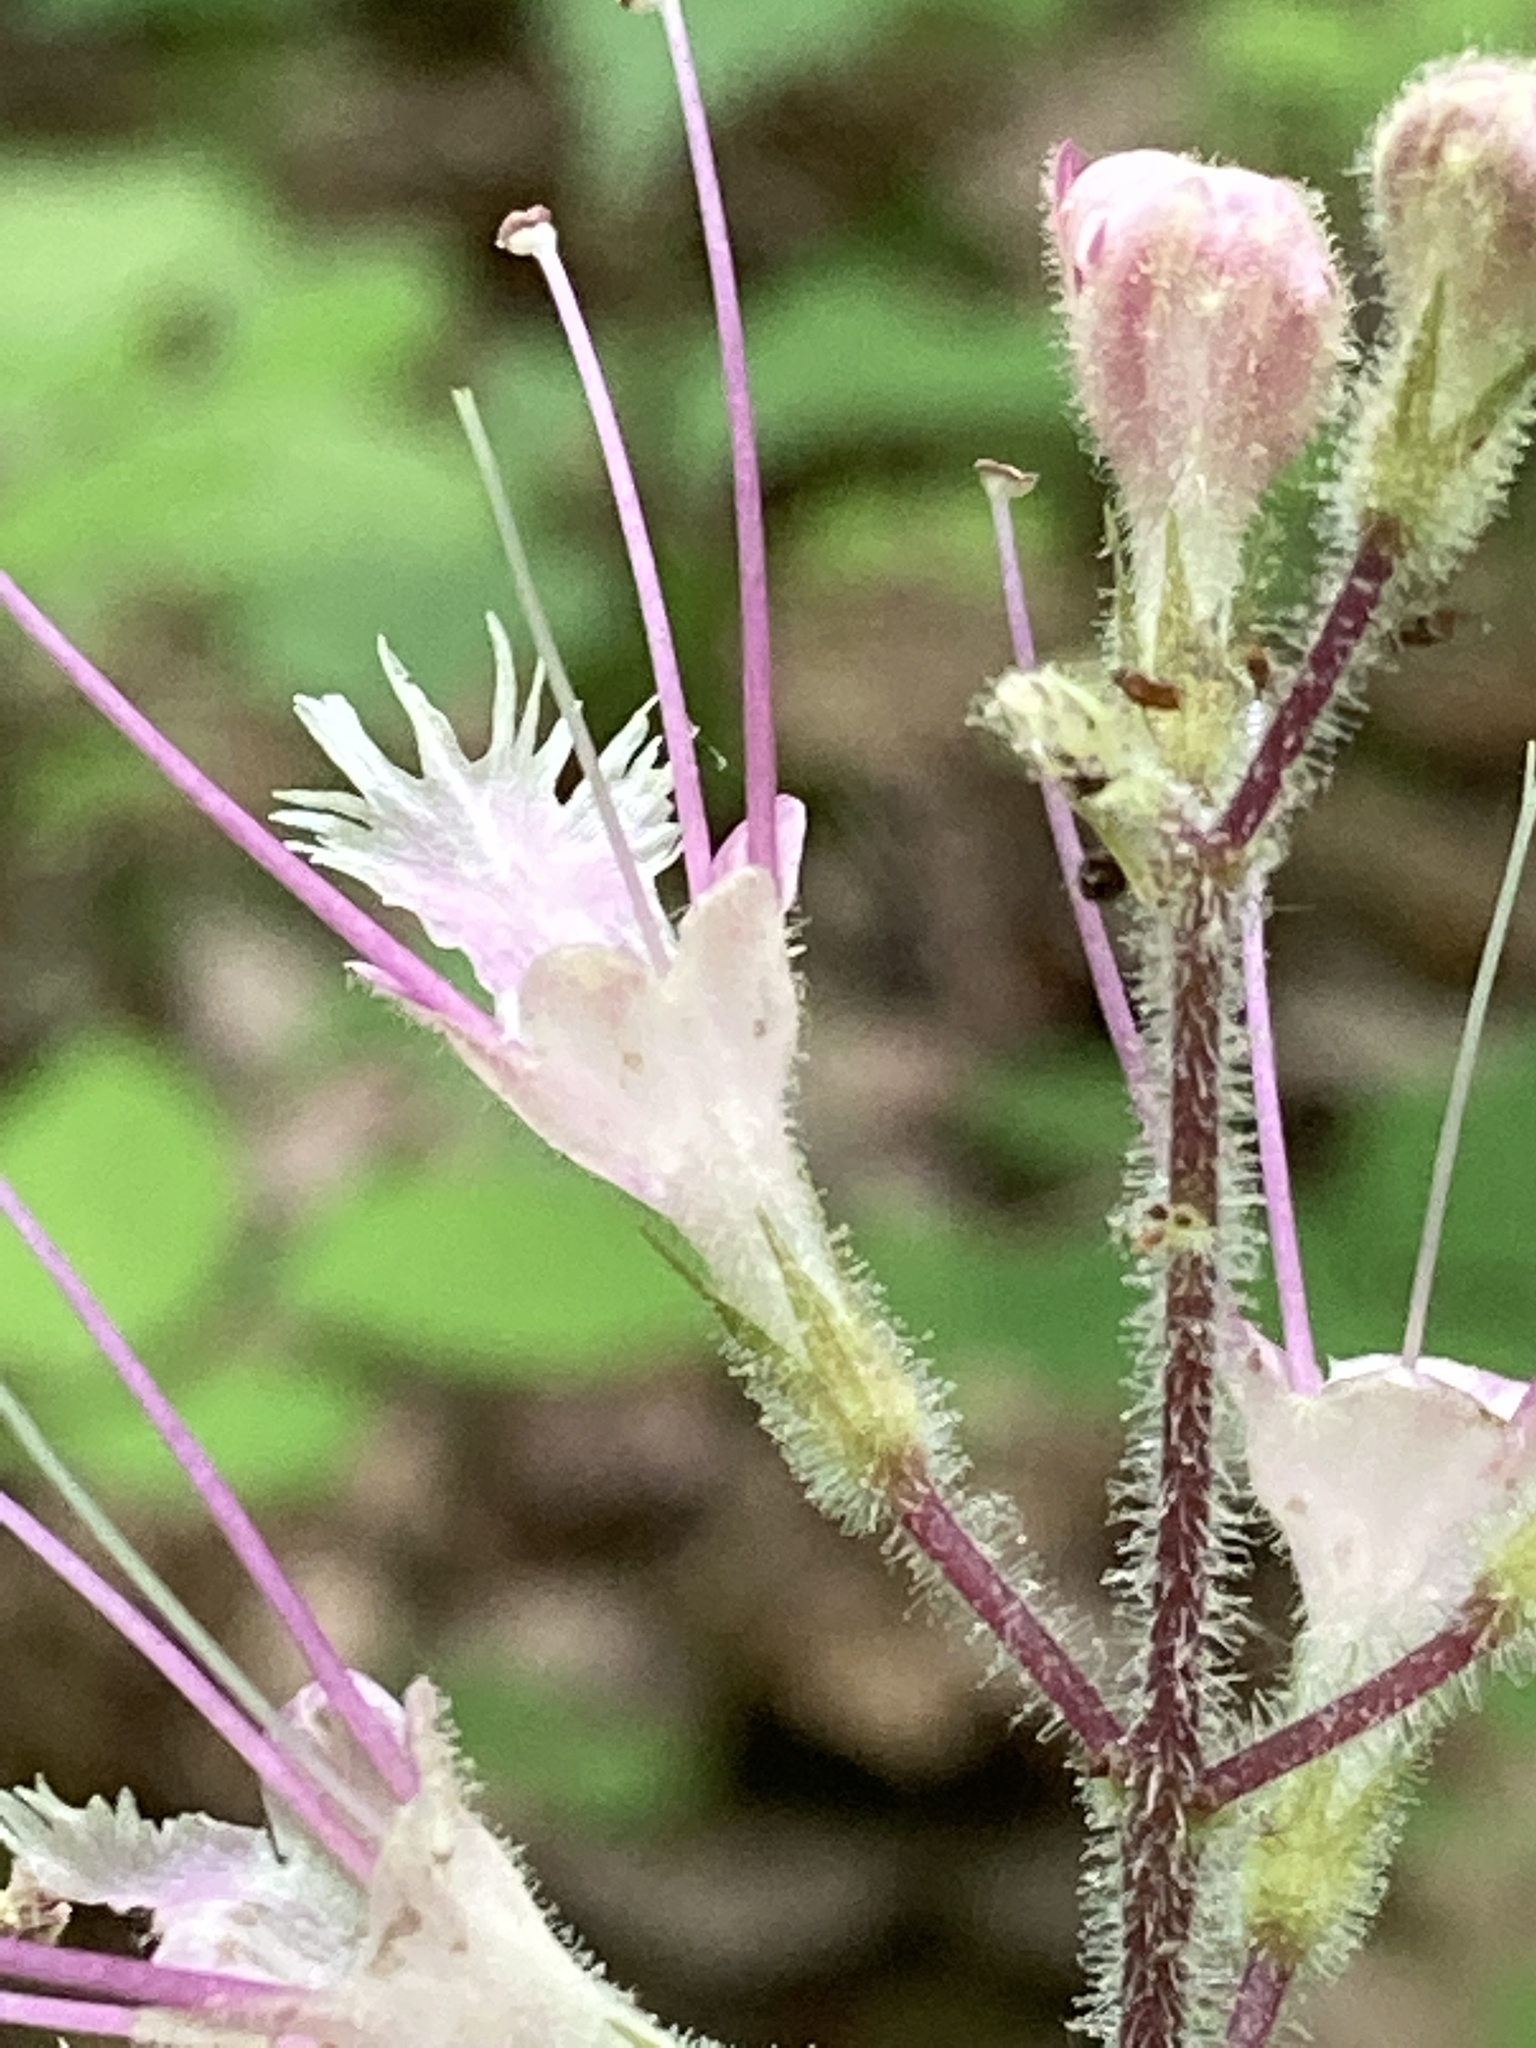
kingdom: Plantae
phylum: Tracheophyta
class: Magnoliopsida
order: Lamiales
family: Lamiaceae
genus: Collinsonia
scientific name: Collinsonia verticillata
